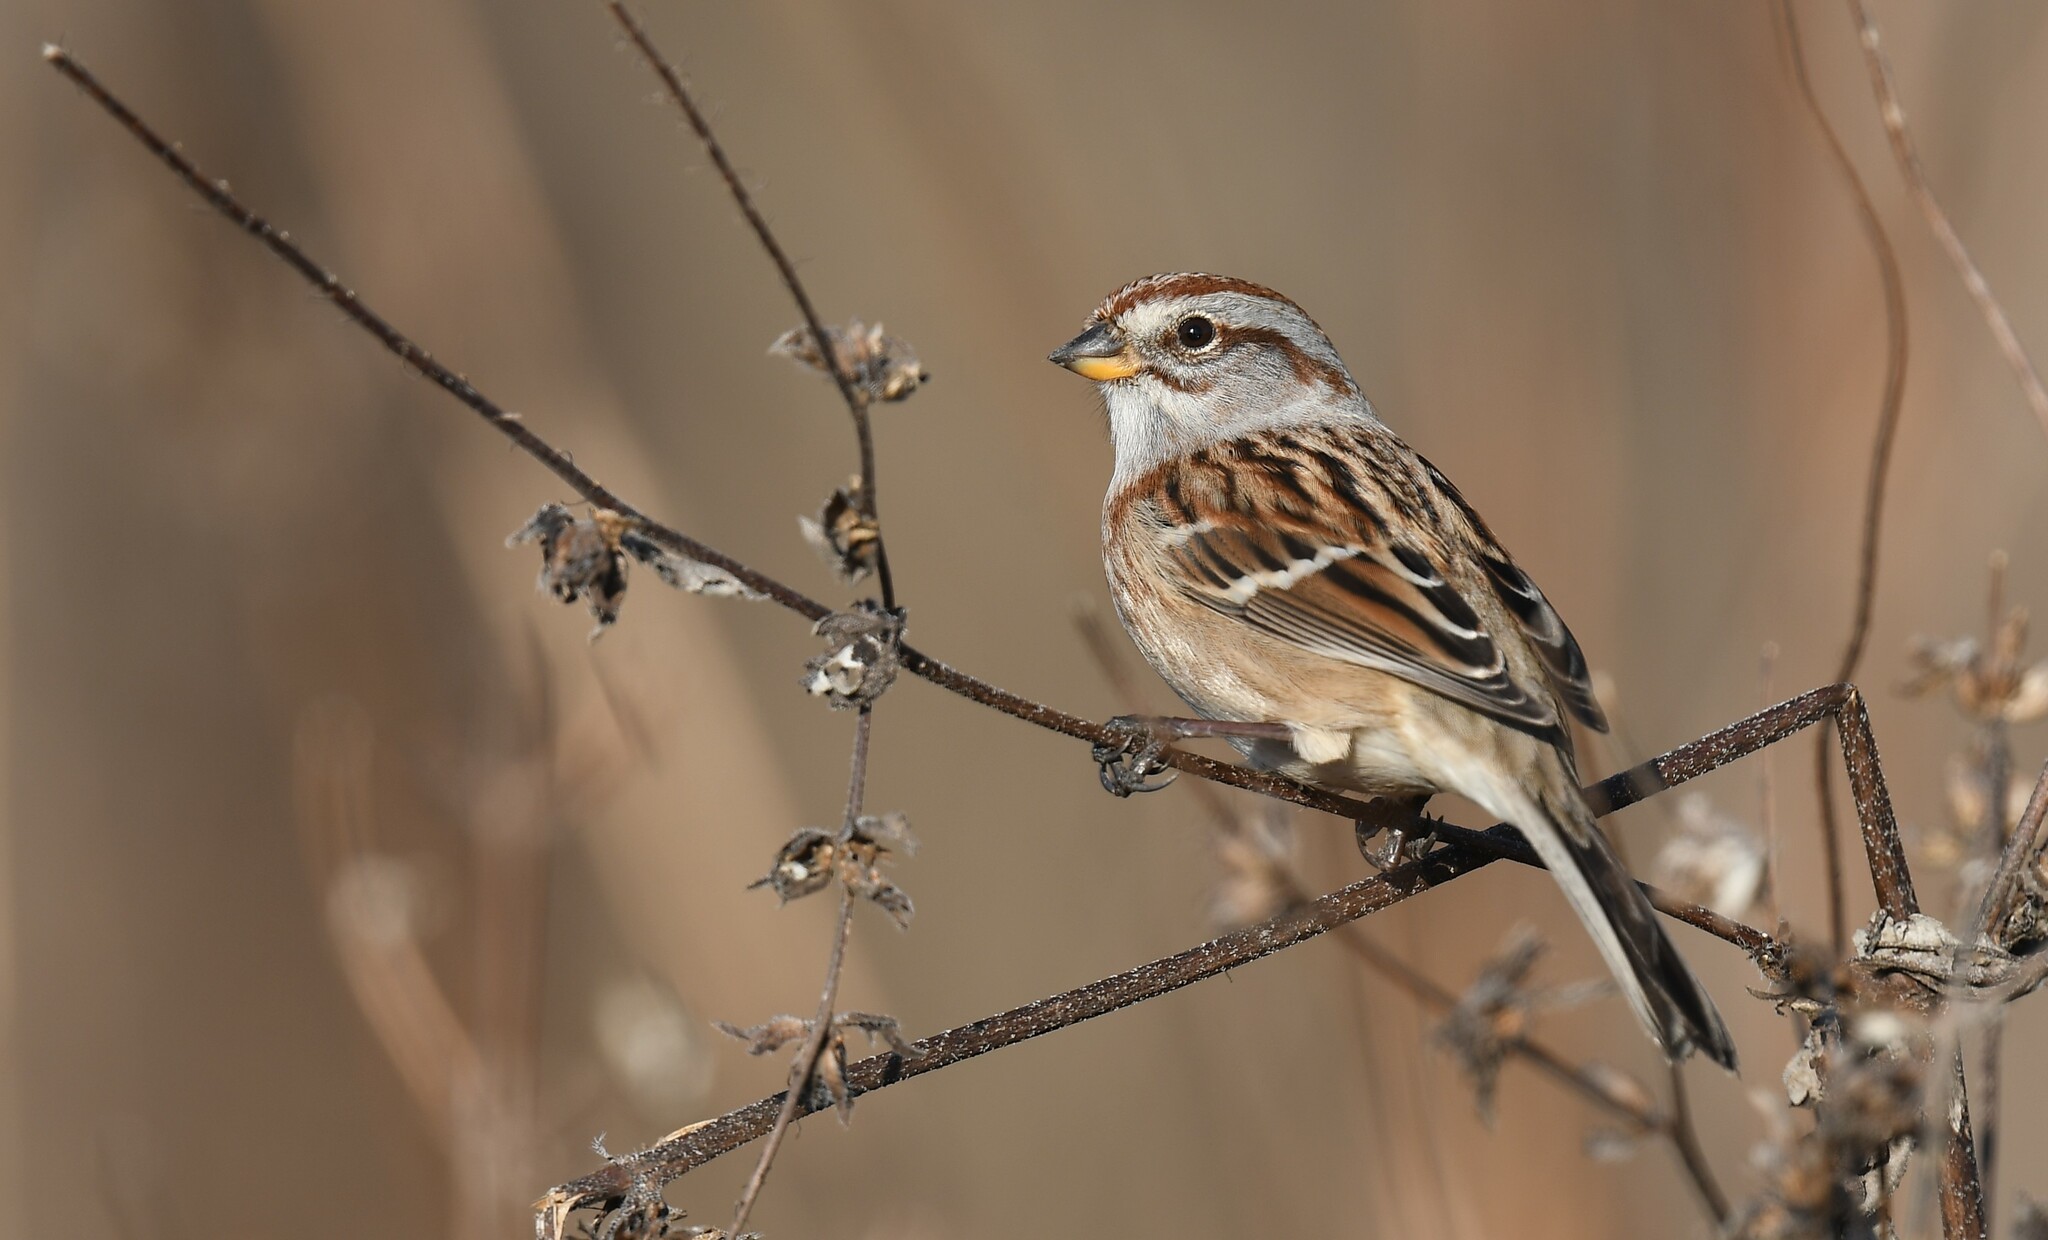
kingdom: Animalia
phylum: Chordata
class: Aves
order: Passeriformes
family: Passerellidae
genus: Spizelloides
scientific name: Spizelloides arborea
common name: American tree sparrow
